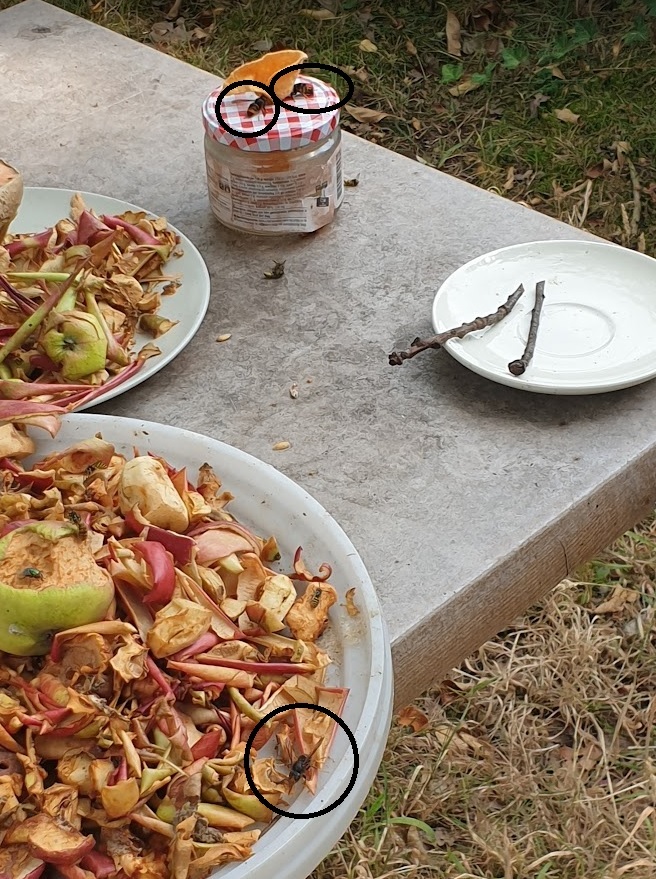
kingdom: Animalia
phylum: Arthropoda
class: Insecta
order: Hymenoptera
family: Vespidae
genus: Vespa
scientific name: Vespa velutina
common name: Asian hornet
